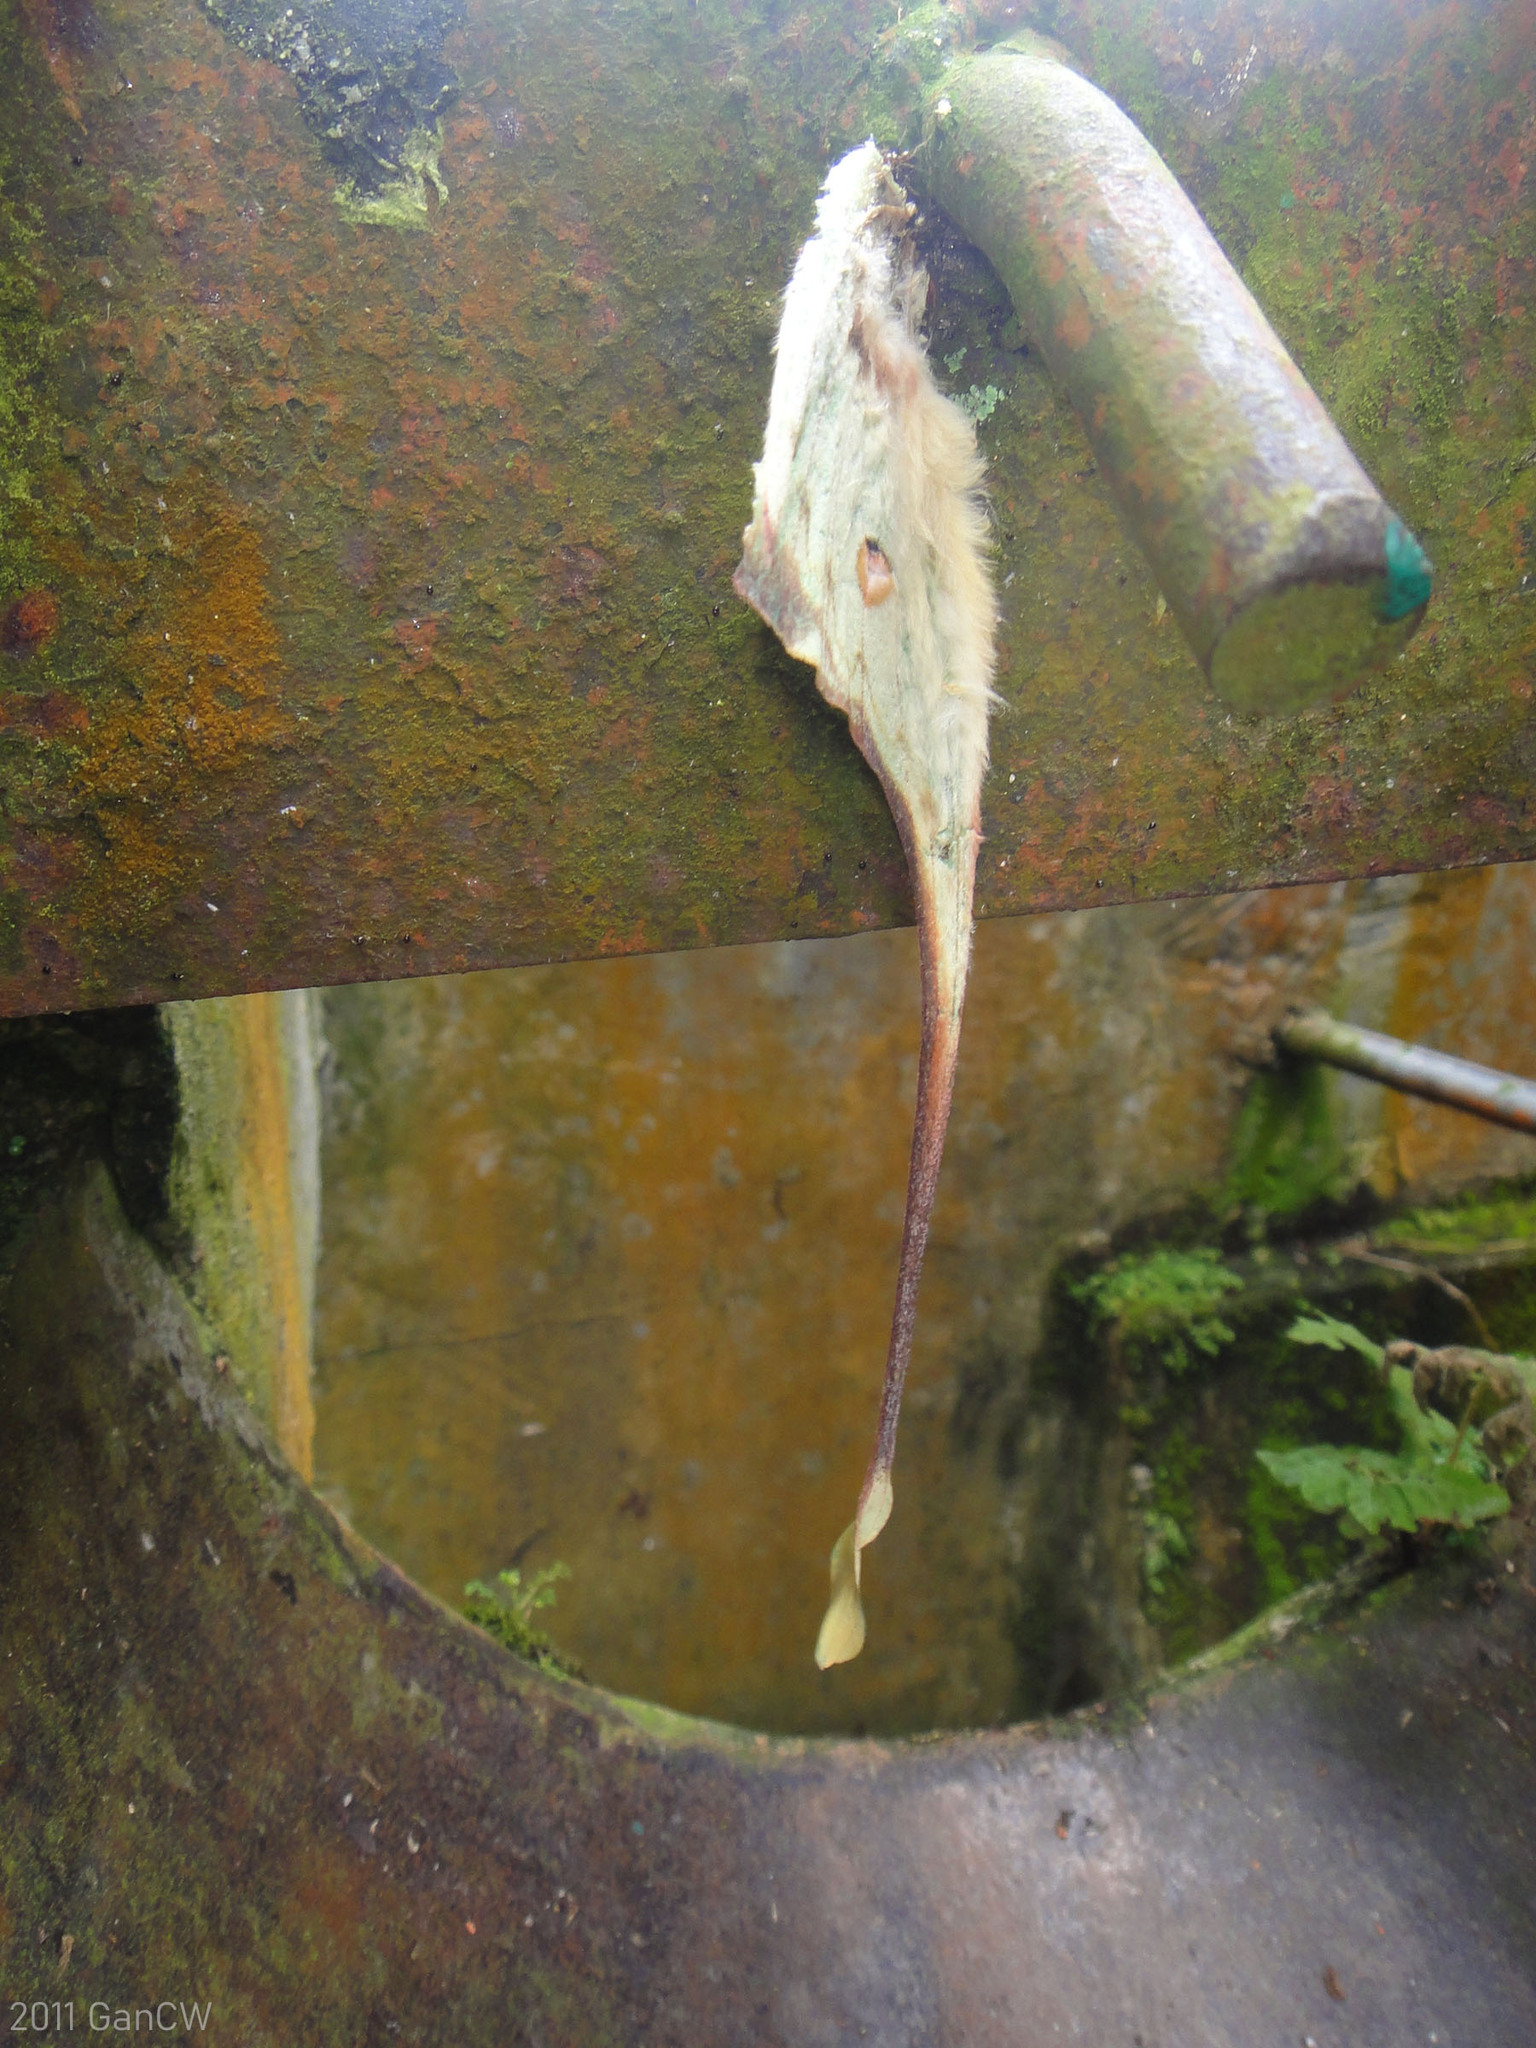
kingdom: Animalia
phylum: Arthropoda
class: Insecta
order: Lepidoptera
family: Saturniidae
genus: Actias
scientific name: Actias maenas
